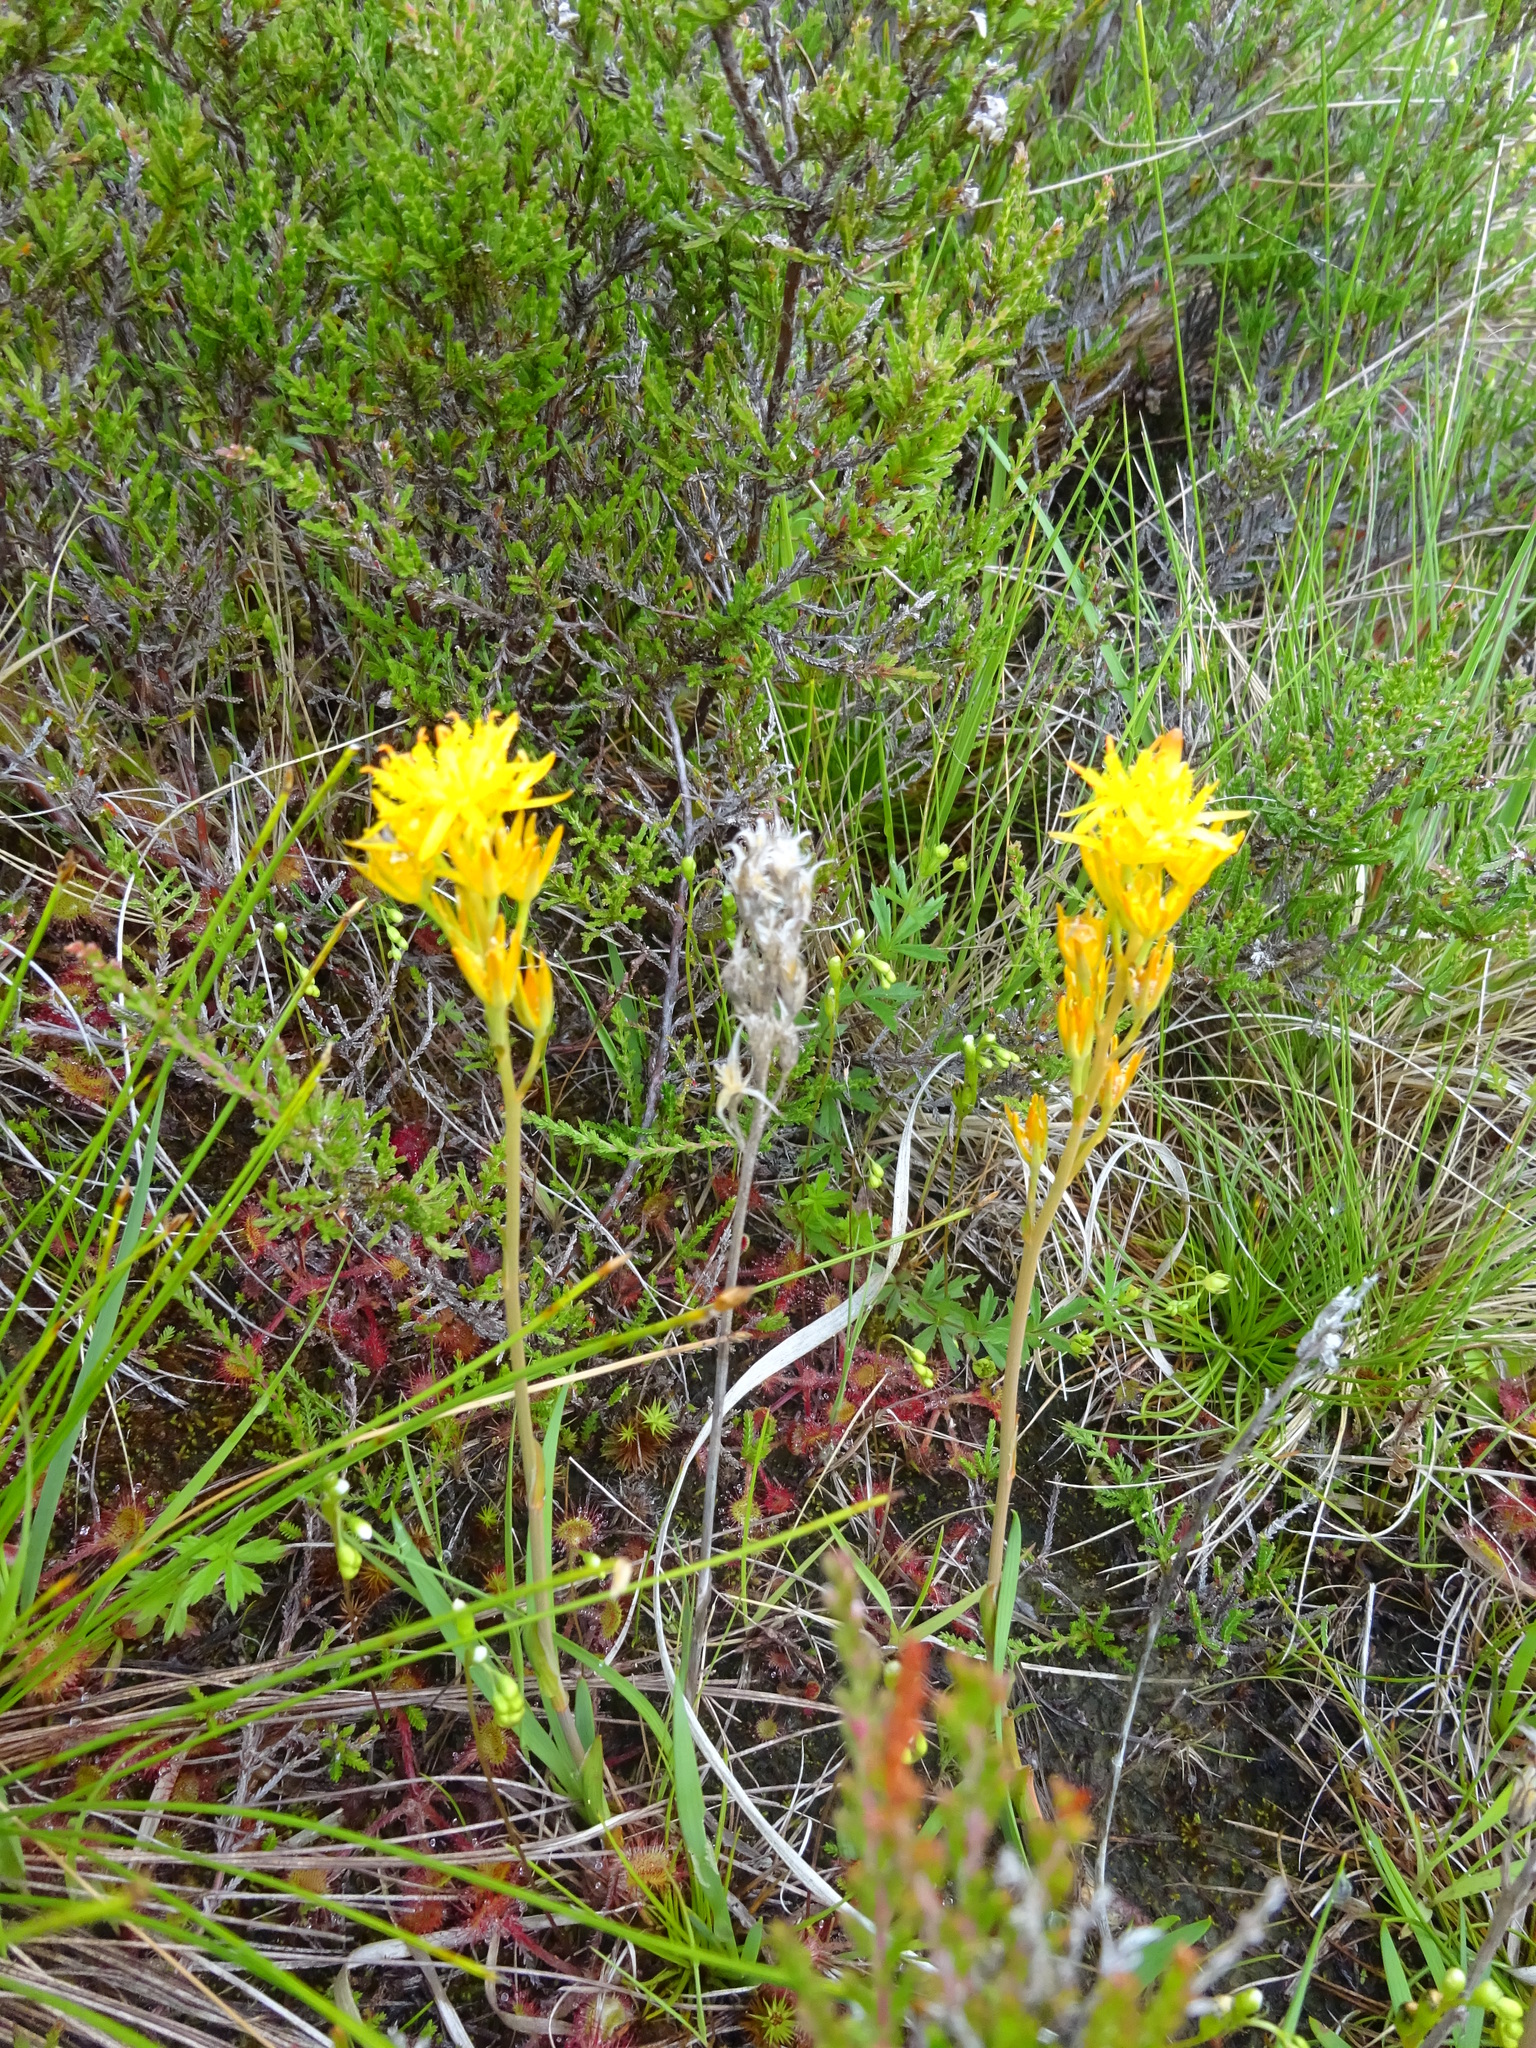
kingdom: Plantae
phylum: Tracheophyta
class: Liliopsida
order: Dioscoreales
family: Nartheciaceae
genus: Narthecium
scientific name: Narthecium ossifragum
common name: Bog asphodel
